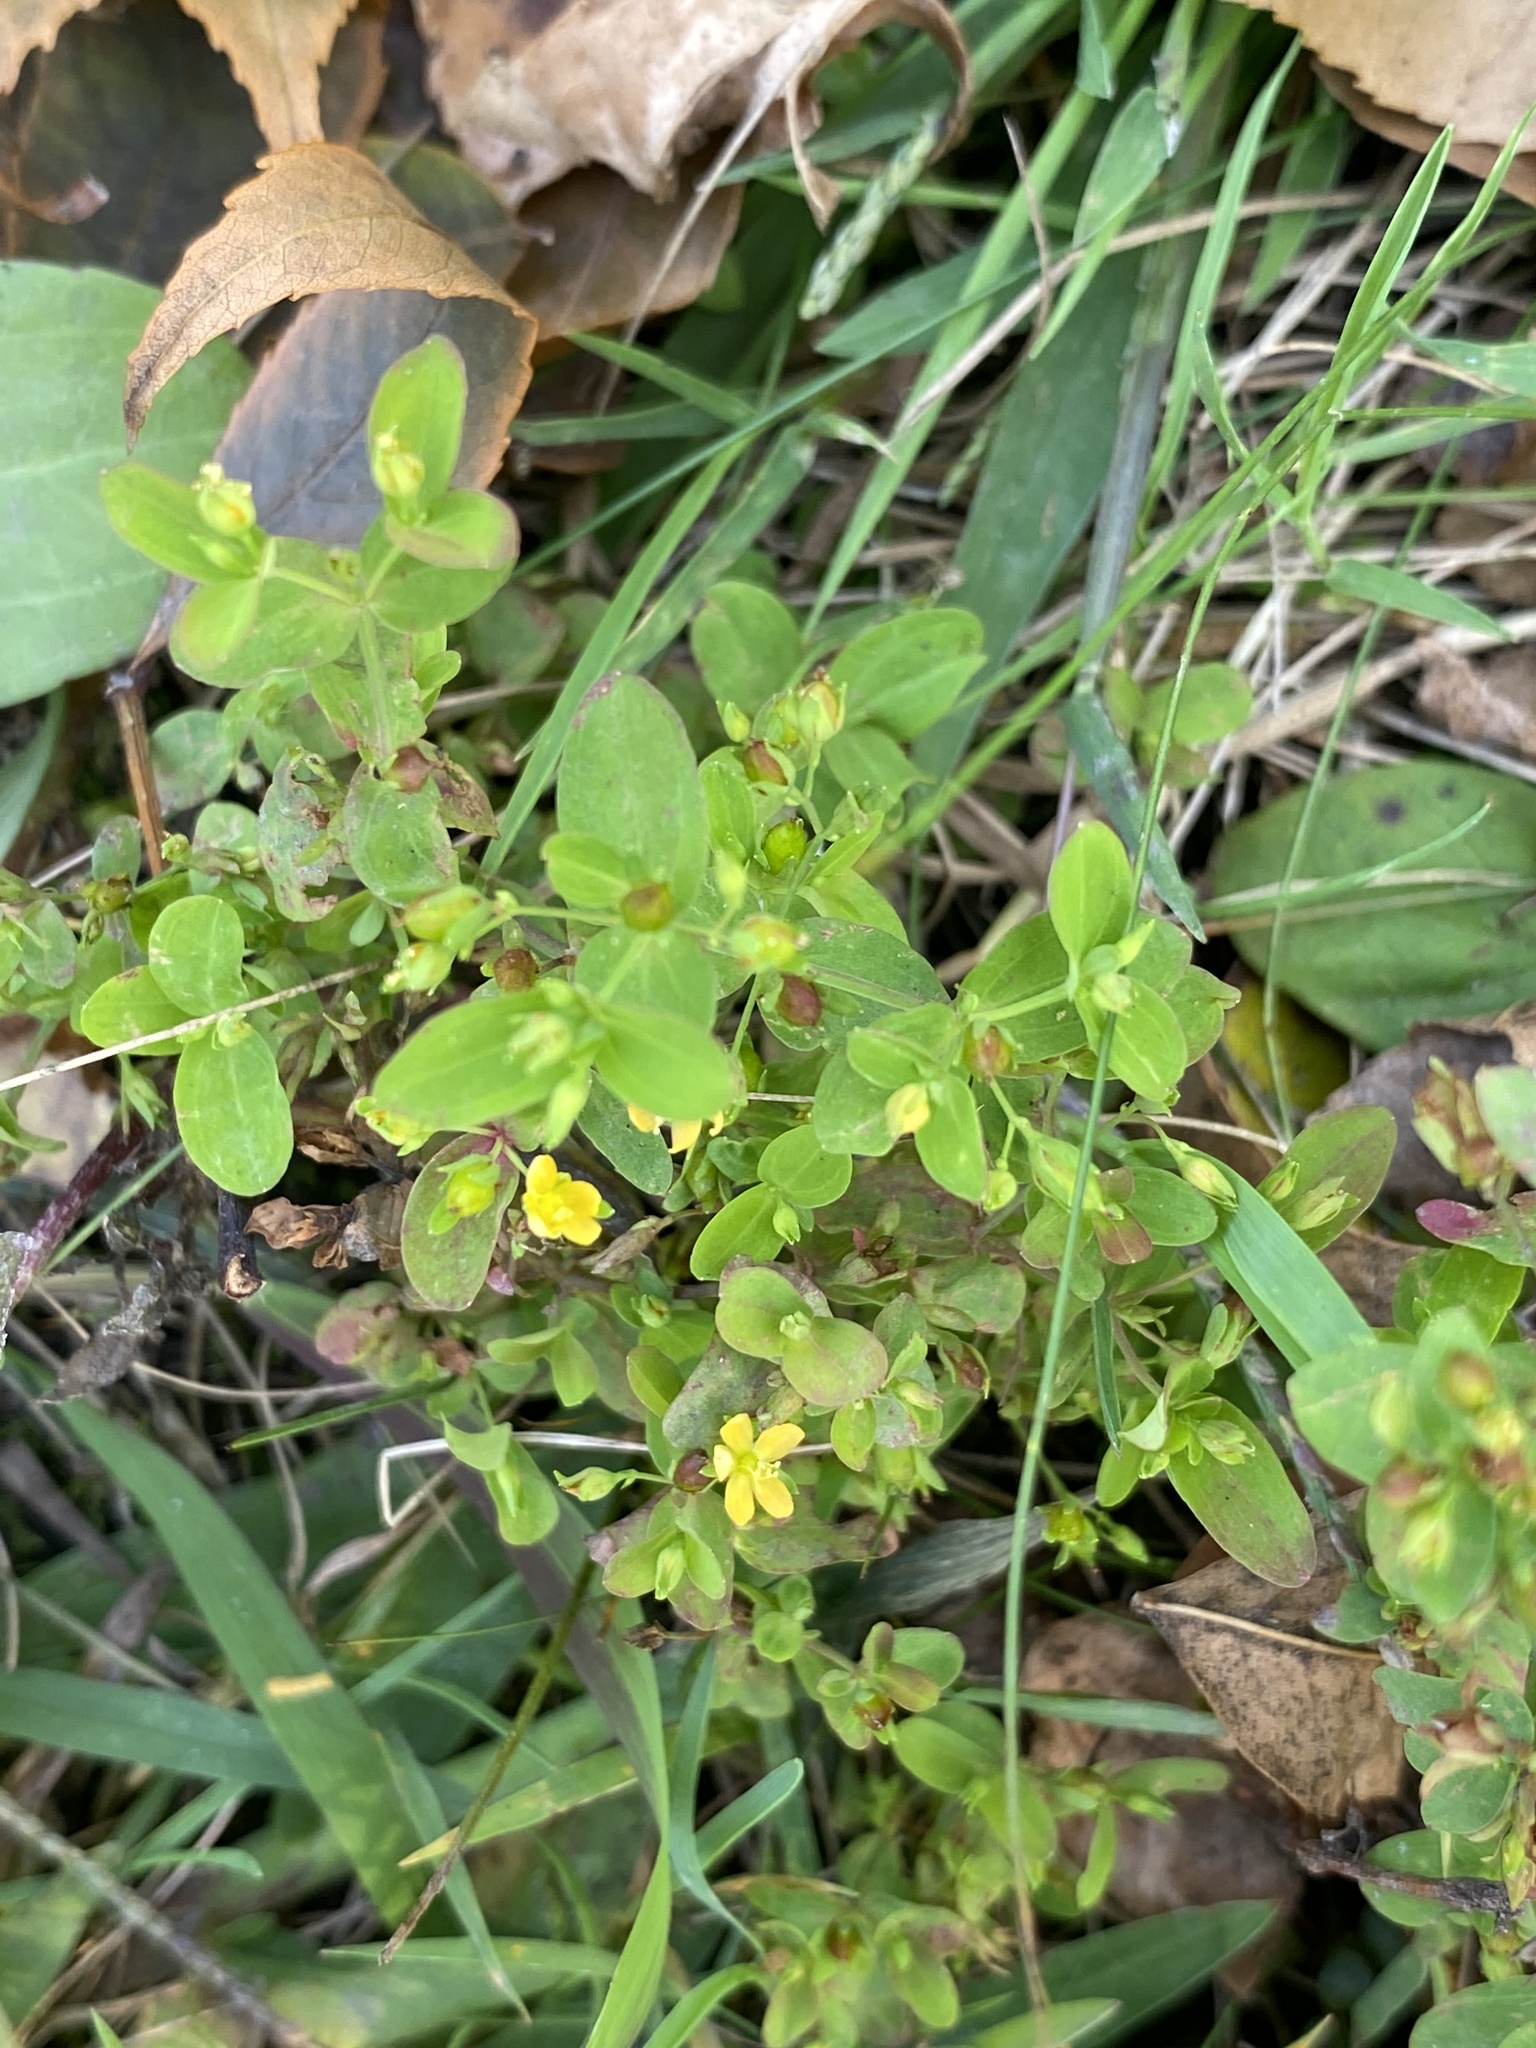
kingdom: Plantae
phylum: Tracheophyta
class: Magnoliopsida
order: Malpighiales
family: Hypericaceae
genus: Hypericum
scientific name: Hypericum mutilum
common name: Dwarf st. john's-wort
